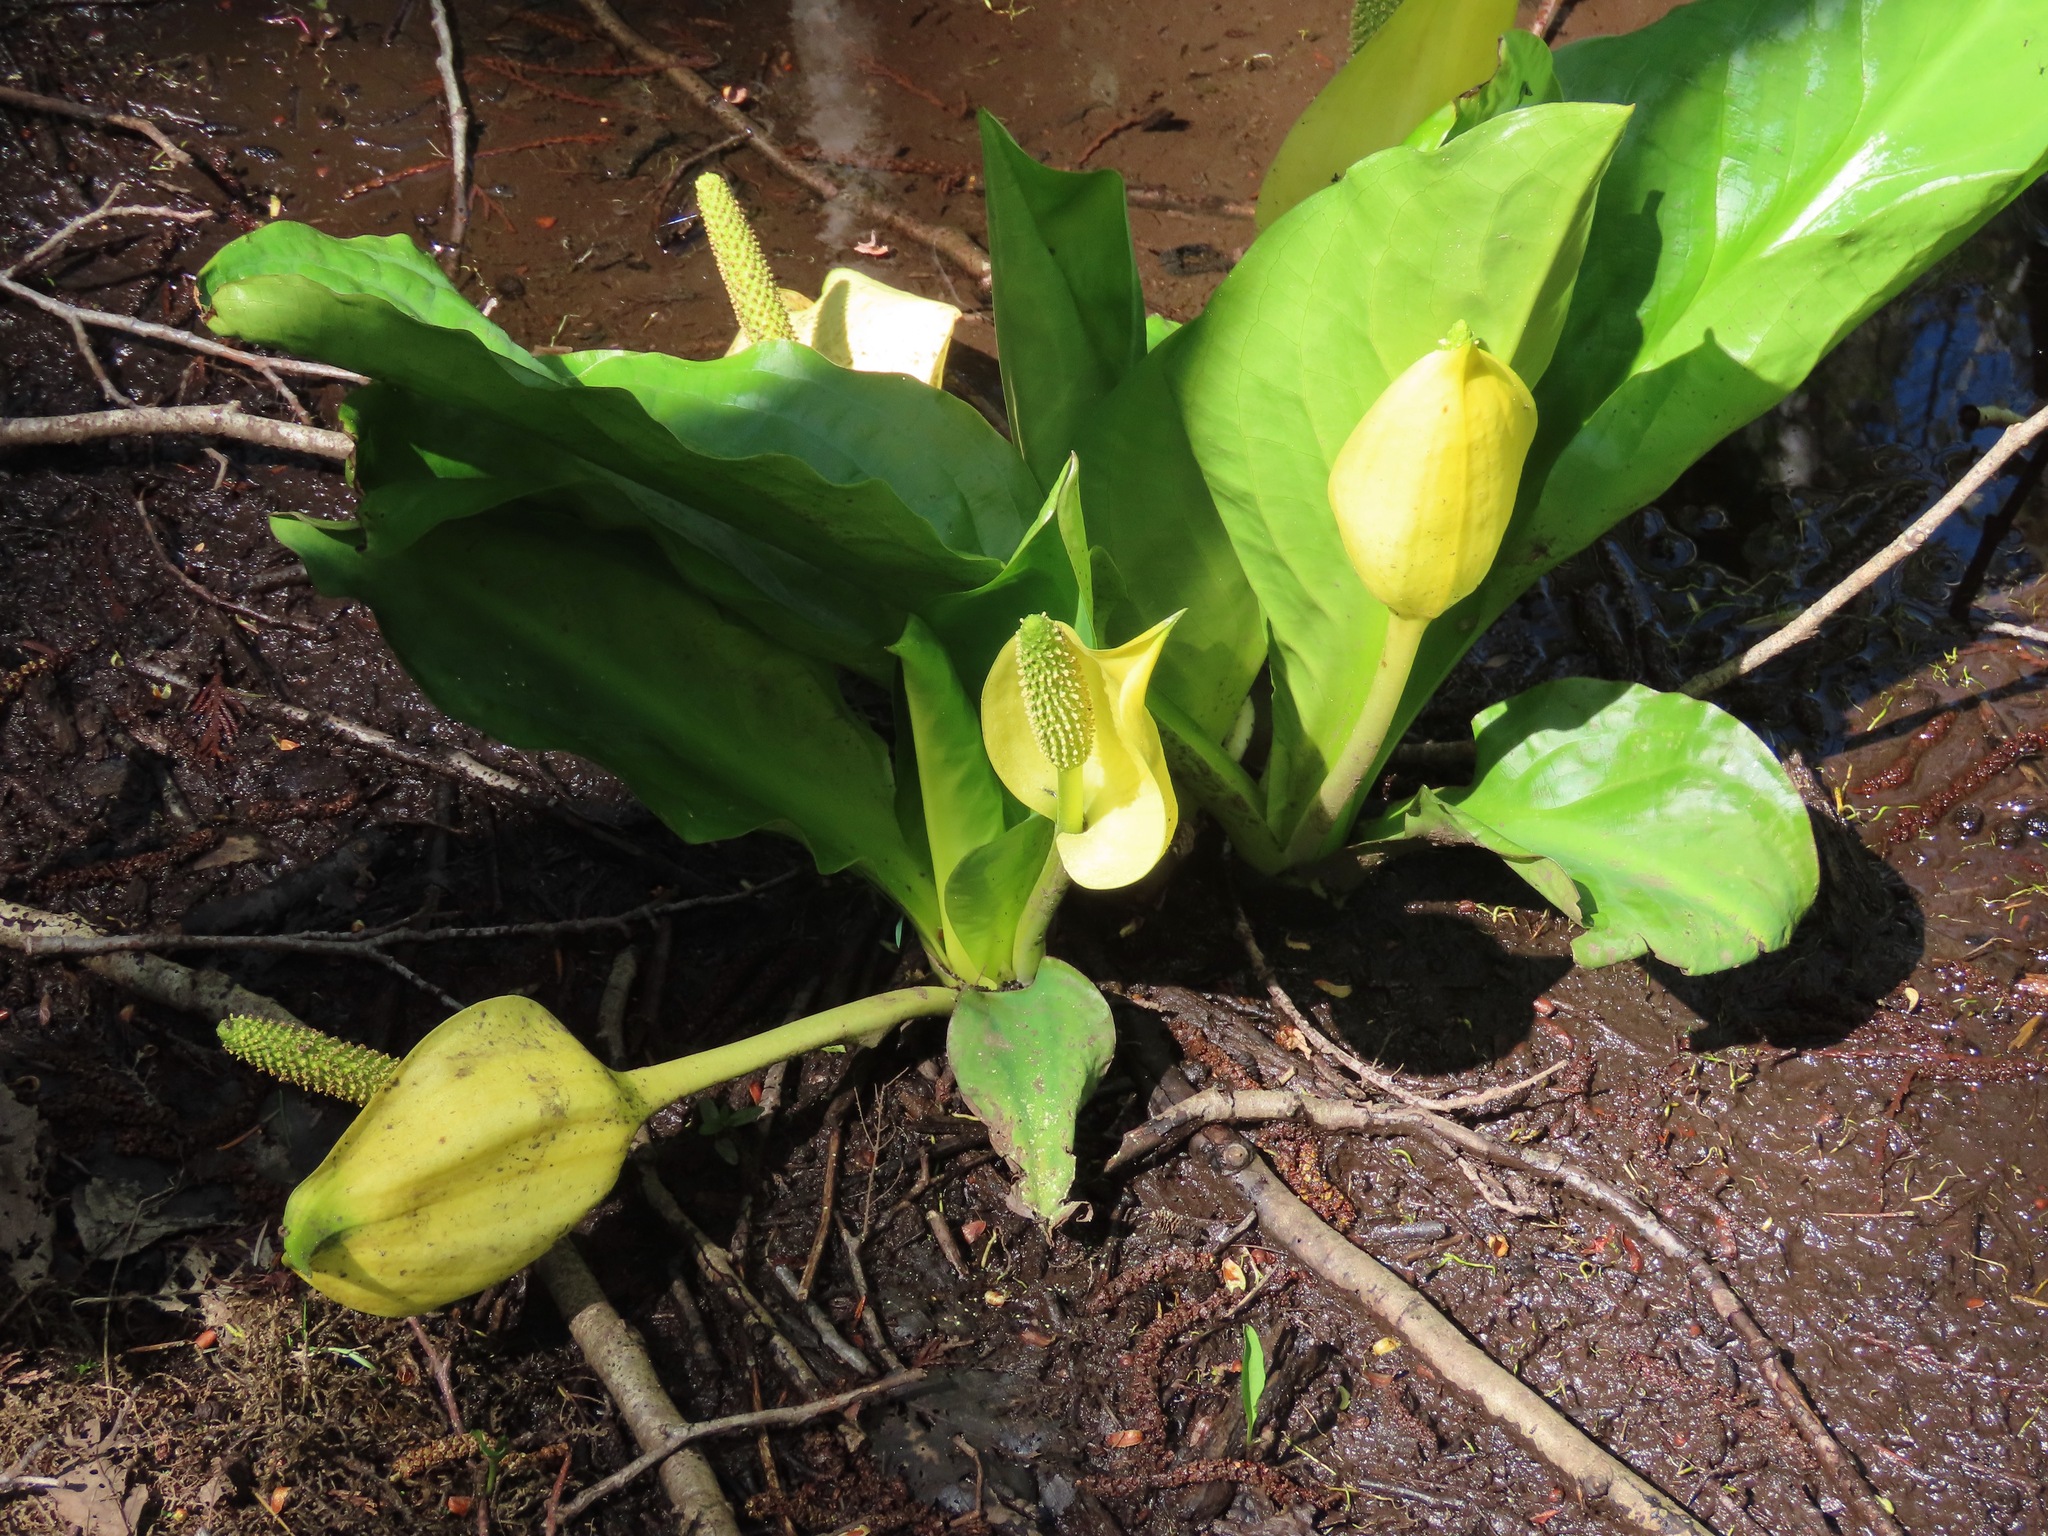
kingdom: Plantae
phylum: Tracheophyta
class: Liliopsida
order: Alismatales
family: Araceae
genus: Lysichiton
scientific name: Lysichiton americanus
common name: American skunk cabbage
